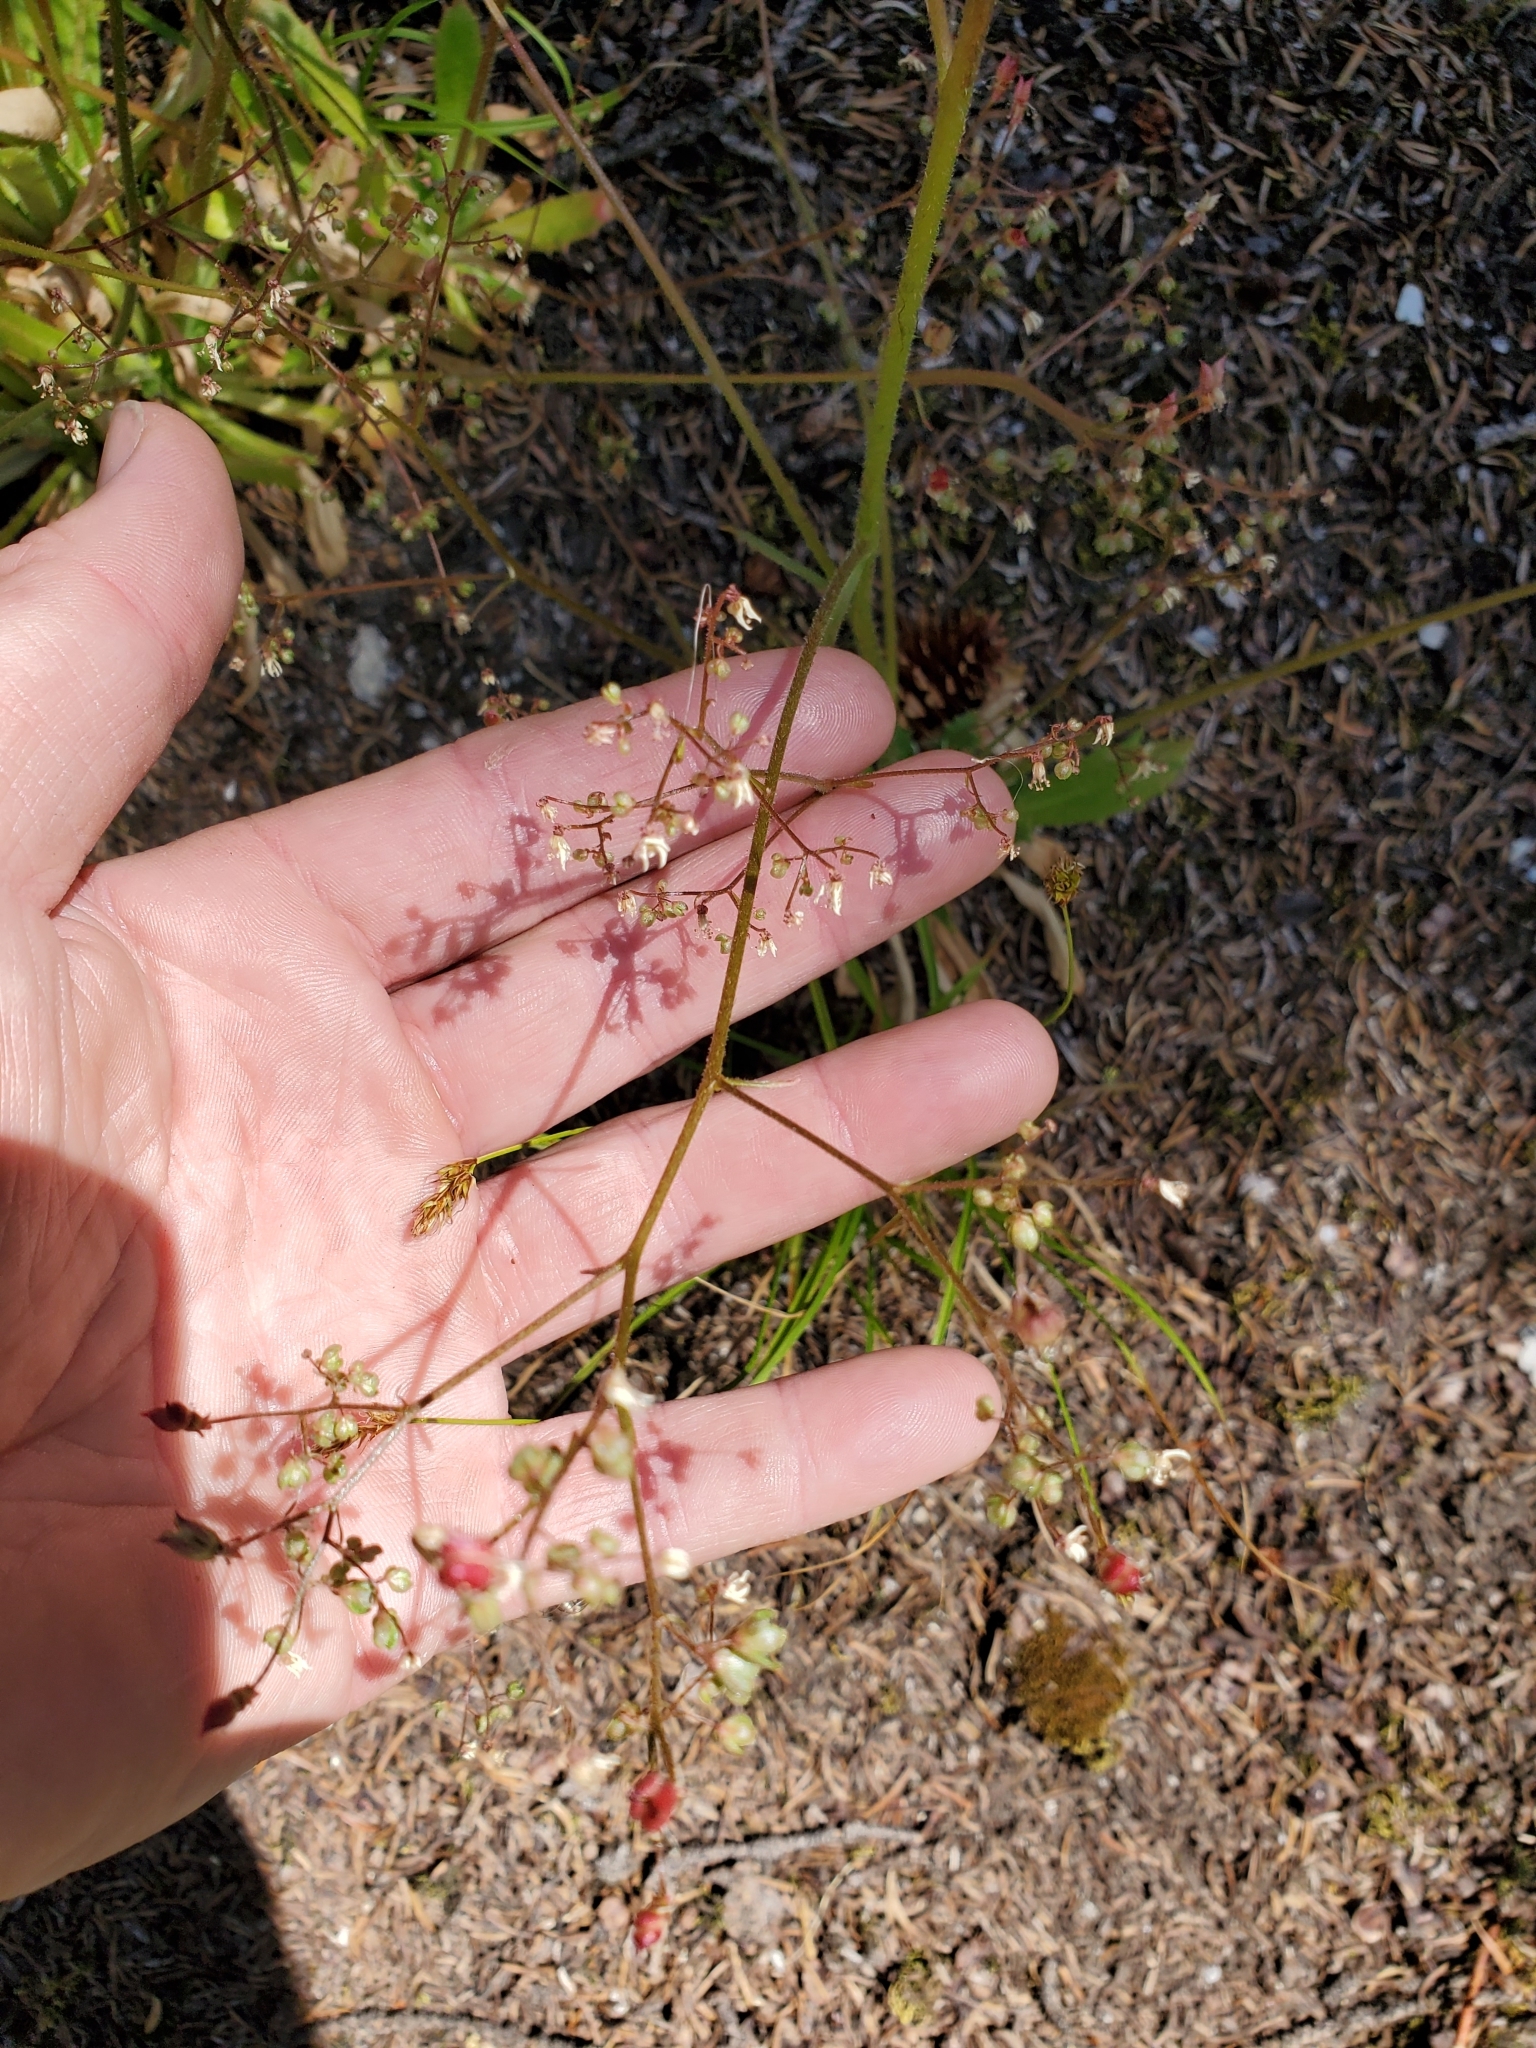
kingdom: Plantae
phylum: Tracheophyta
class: Magnoliopsida
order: Saxifragales
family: Saxifragaceae
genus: Micranthes
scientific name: Micranthes ferruginea
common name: Rusty saxifrage
